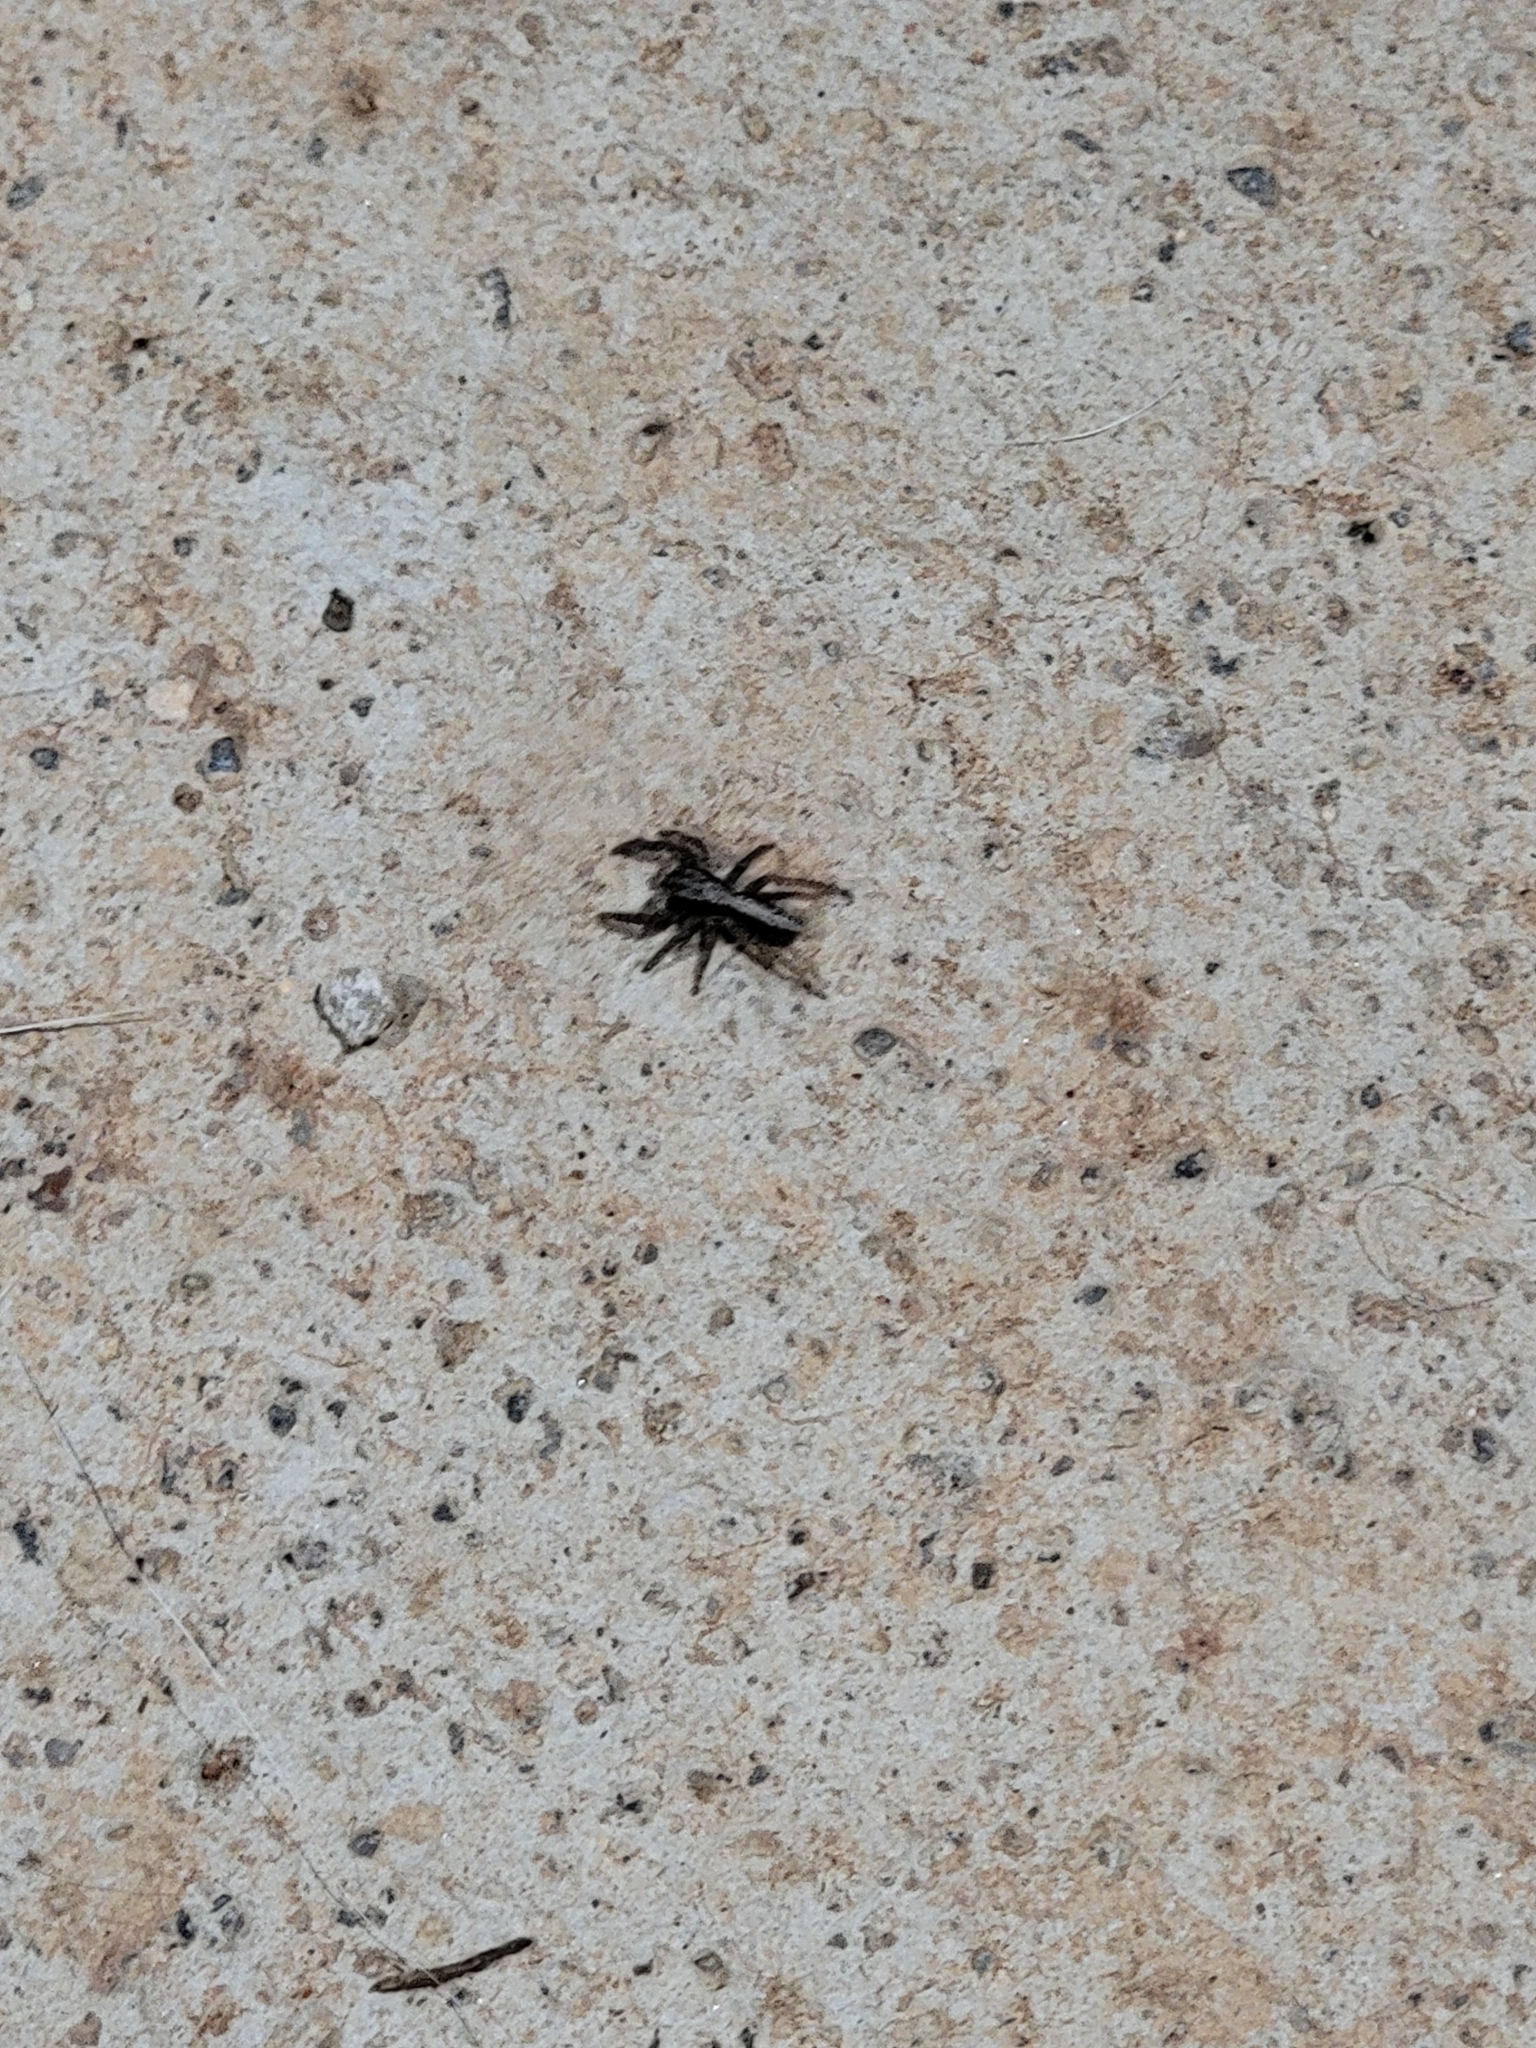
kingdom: Animalia
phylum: Arthropoda
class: Arachnida
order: Araneae
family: Salticidae
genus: Platycryptus
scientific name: Platycryptus californicus
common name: Jumping spiders
